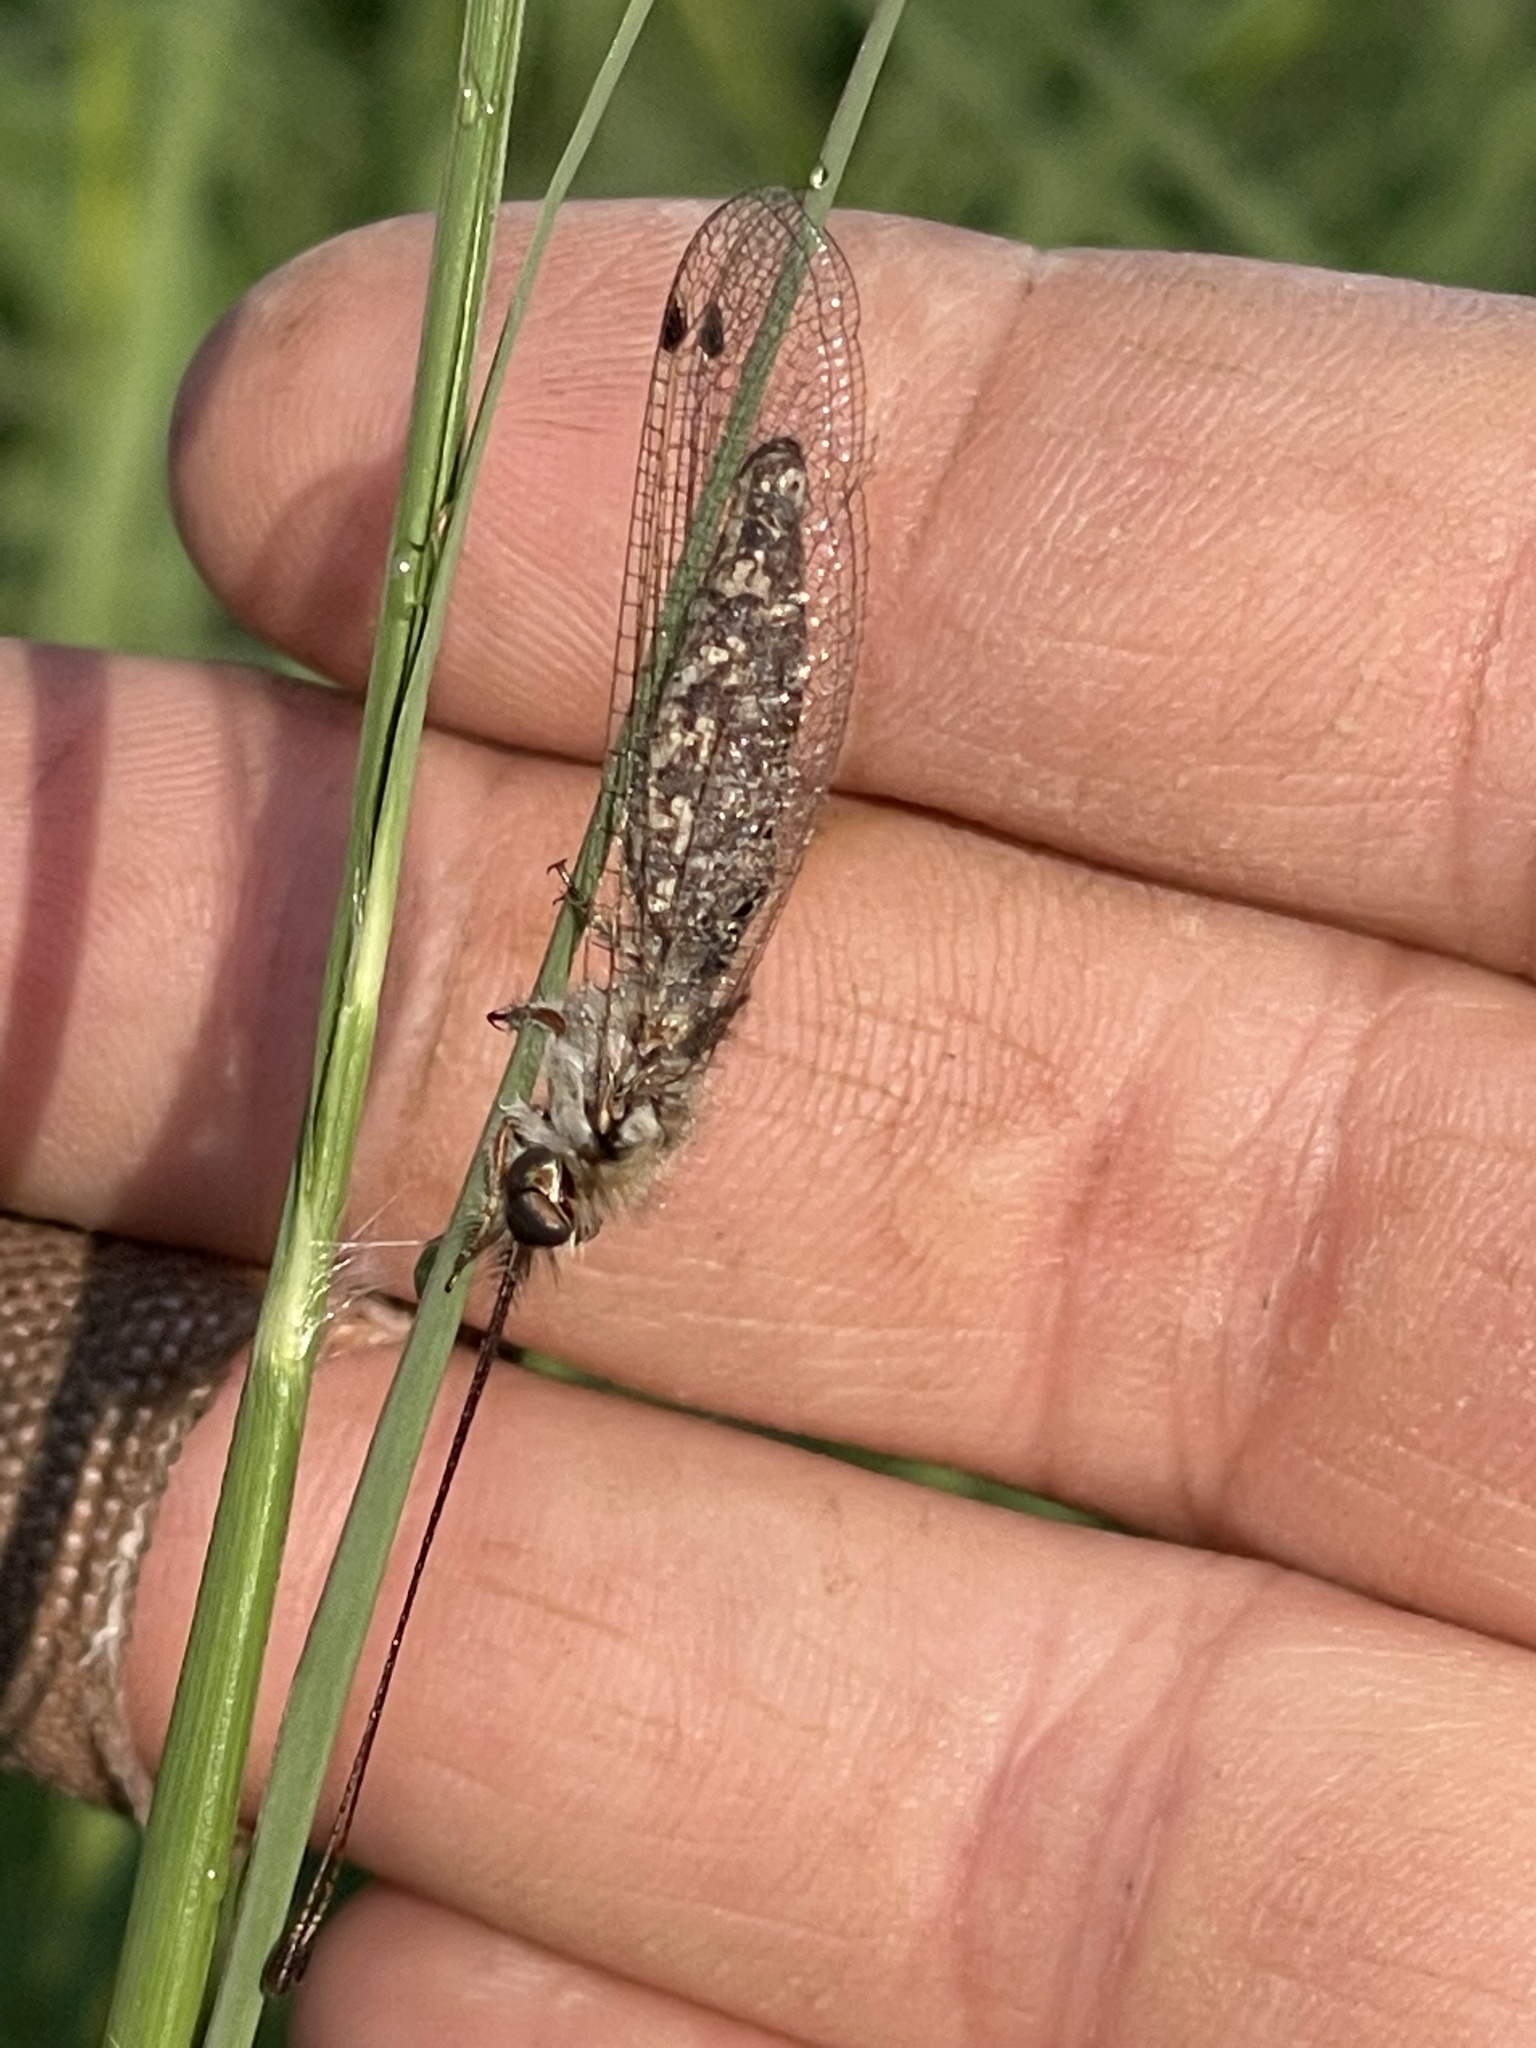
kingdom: Animalia
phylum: Arthropoda
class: Insecta
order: Neuroptera
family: Ascalaphidae
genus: Ululodes
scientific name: Ululodes macleayanus
